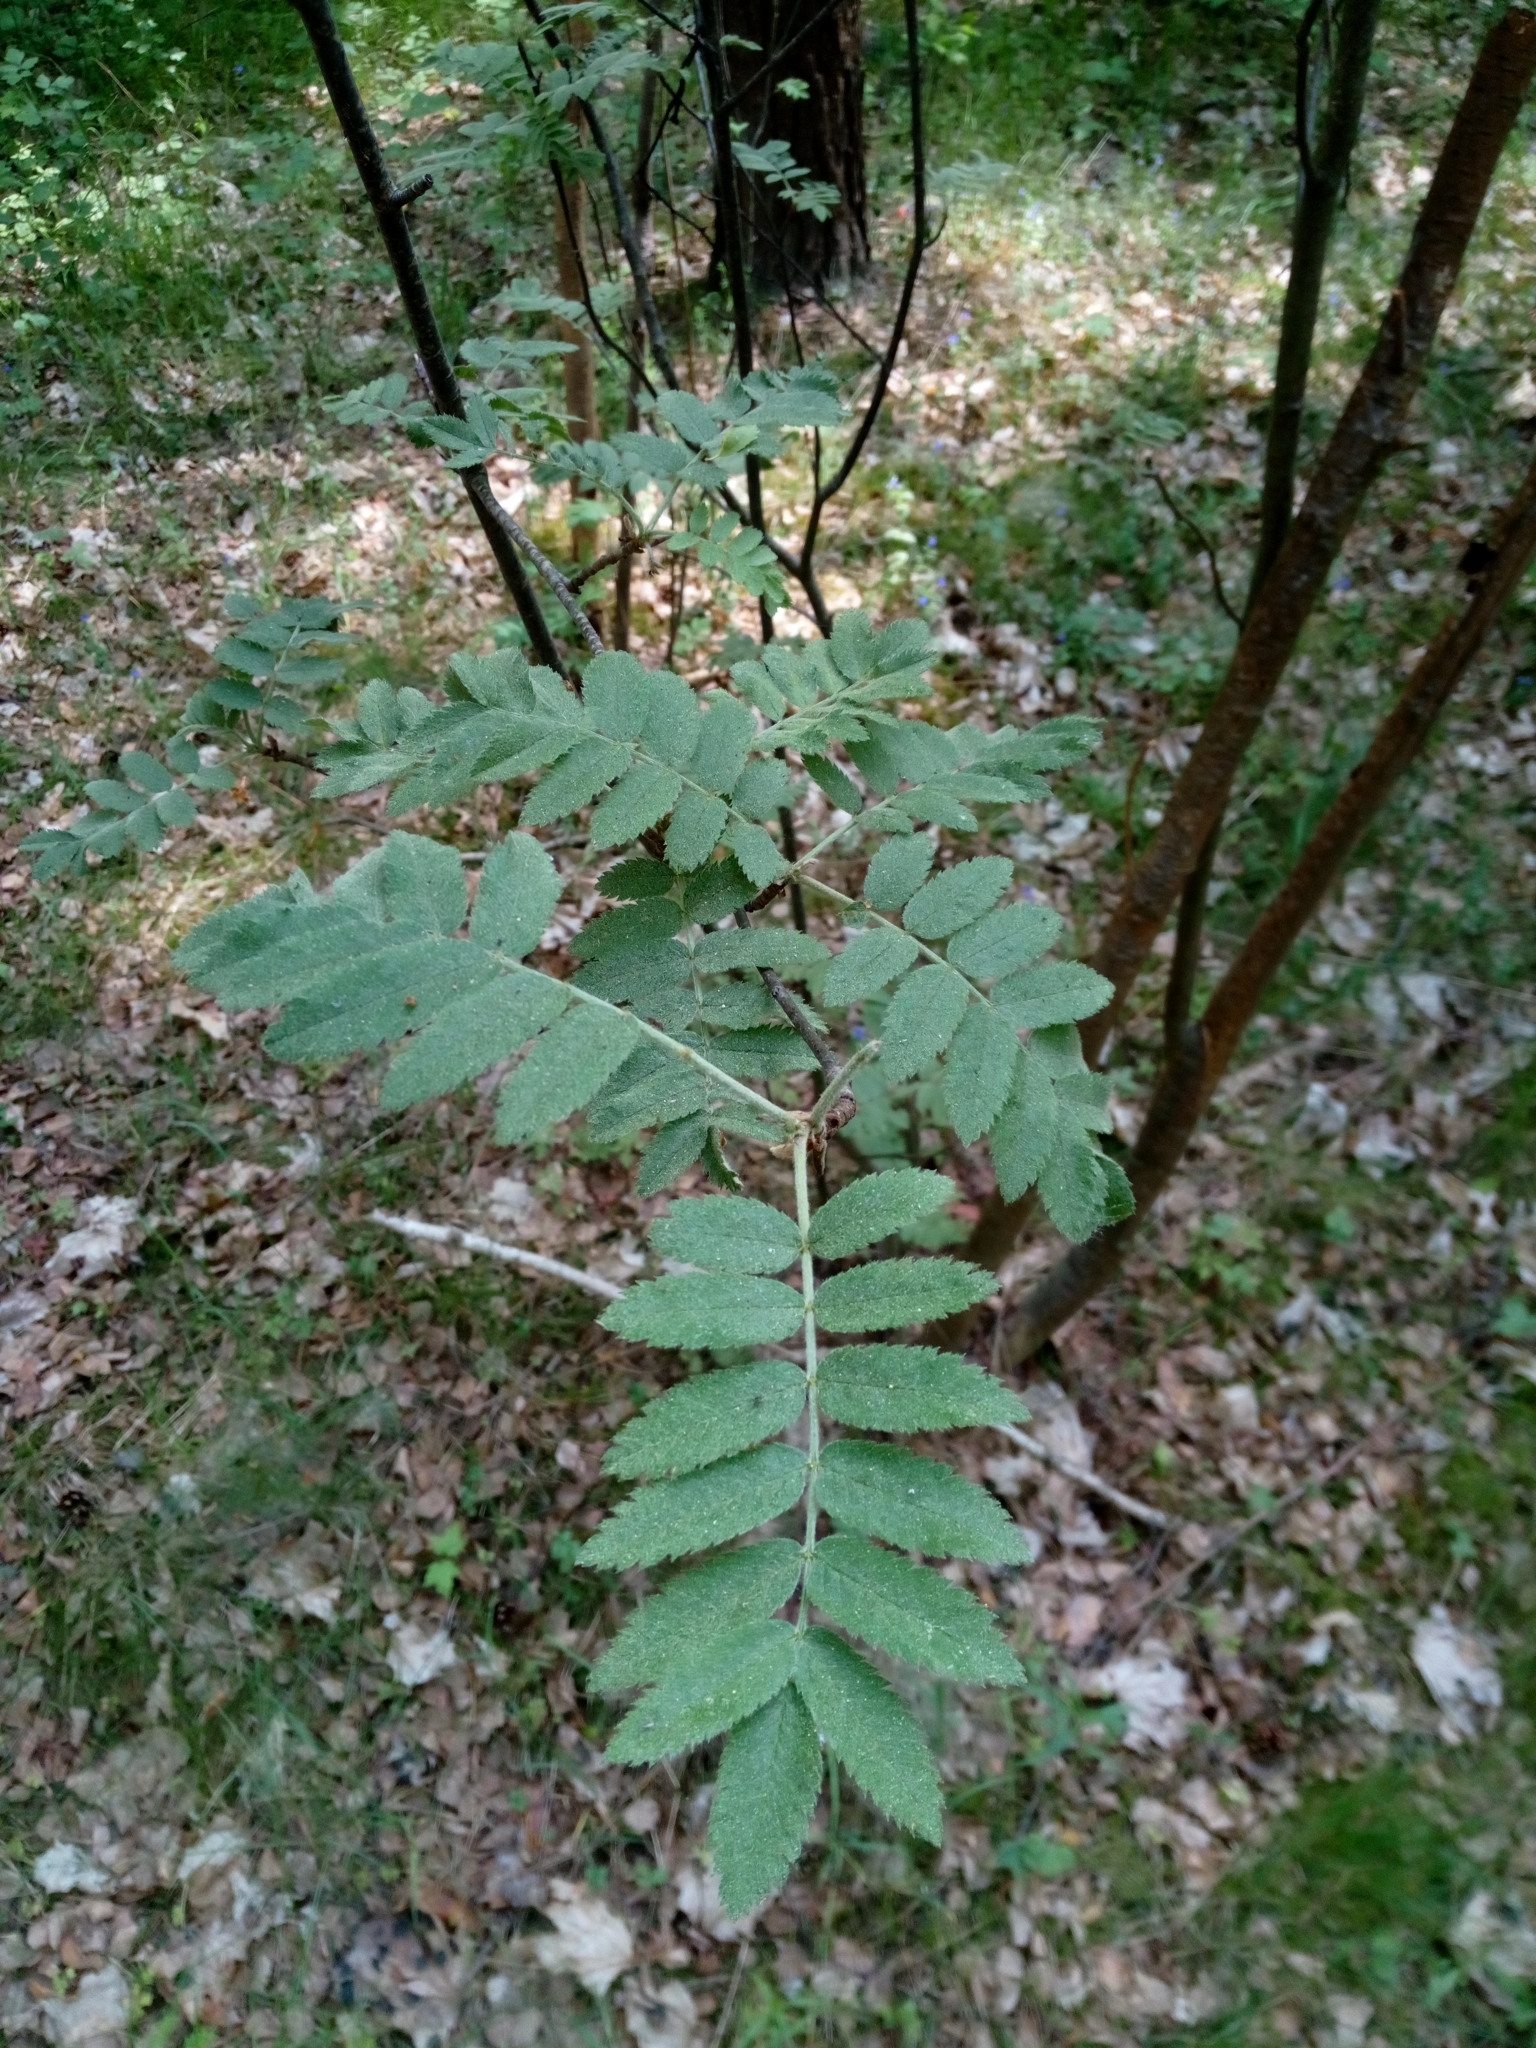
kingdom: Plantae
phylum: Tracheophyta
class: Magnoliopsida
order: Rosales
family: Rosaceae
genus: Sorbus
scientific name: Sorbus aucuparia
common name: Rowan
